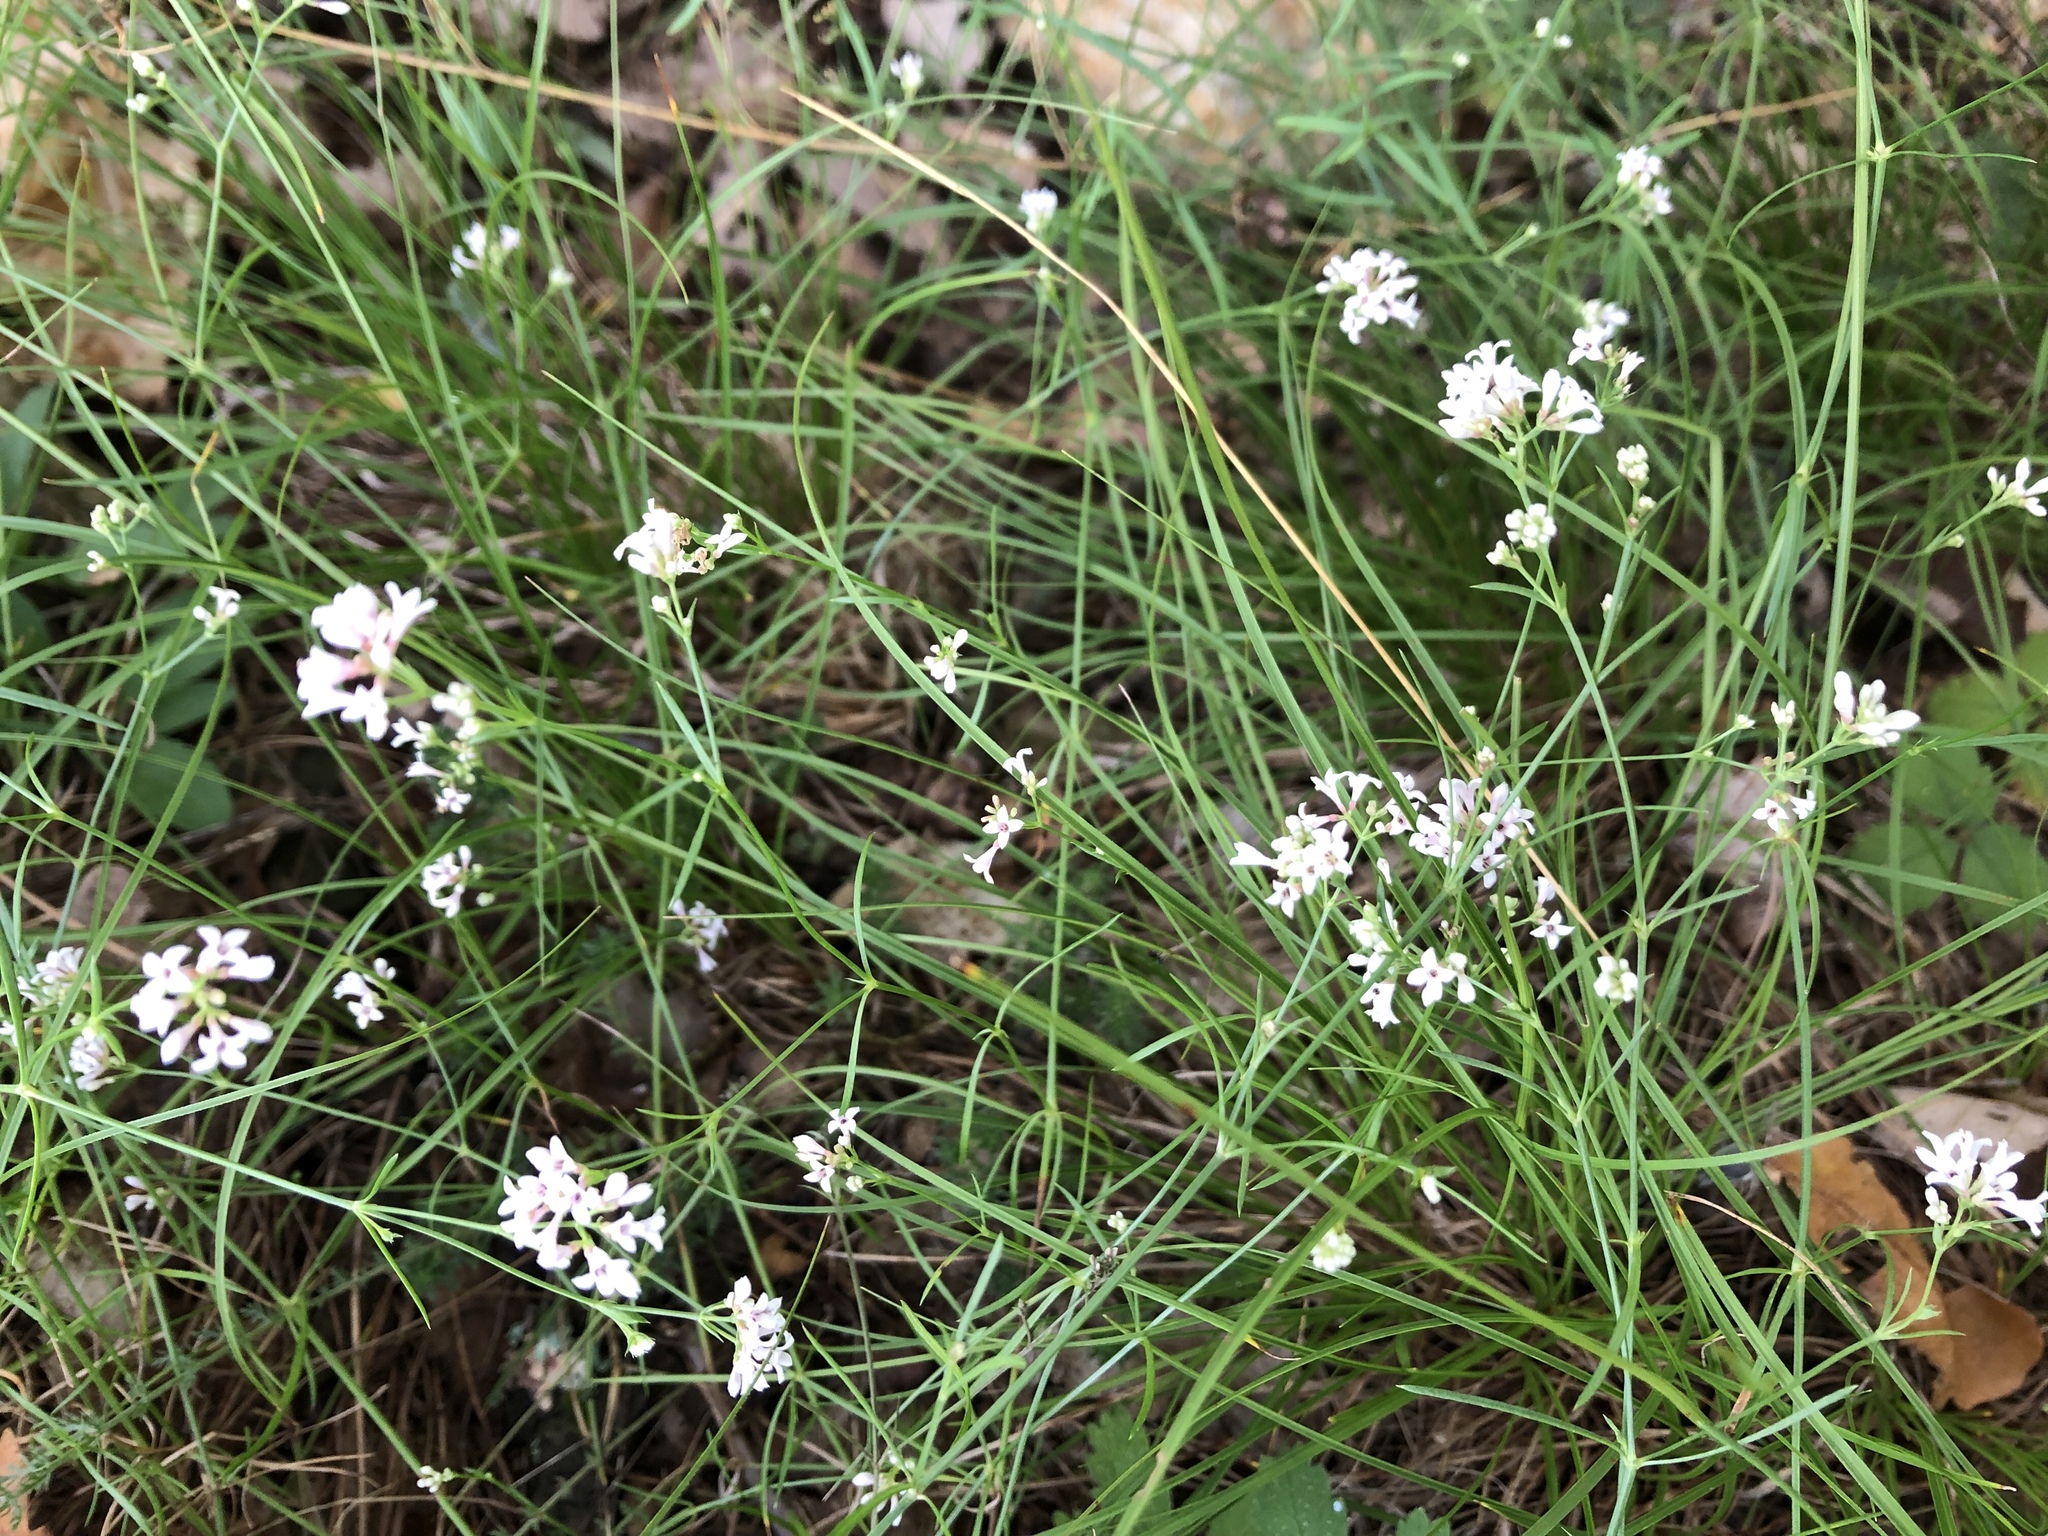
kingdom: Plantae
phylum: Tracheophyta
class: Magnoliopsida
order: Gentianales
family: Rubiaceae
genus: Cynanchica
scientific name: Cynanchica pyrenaica
